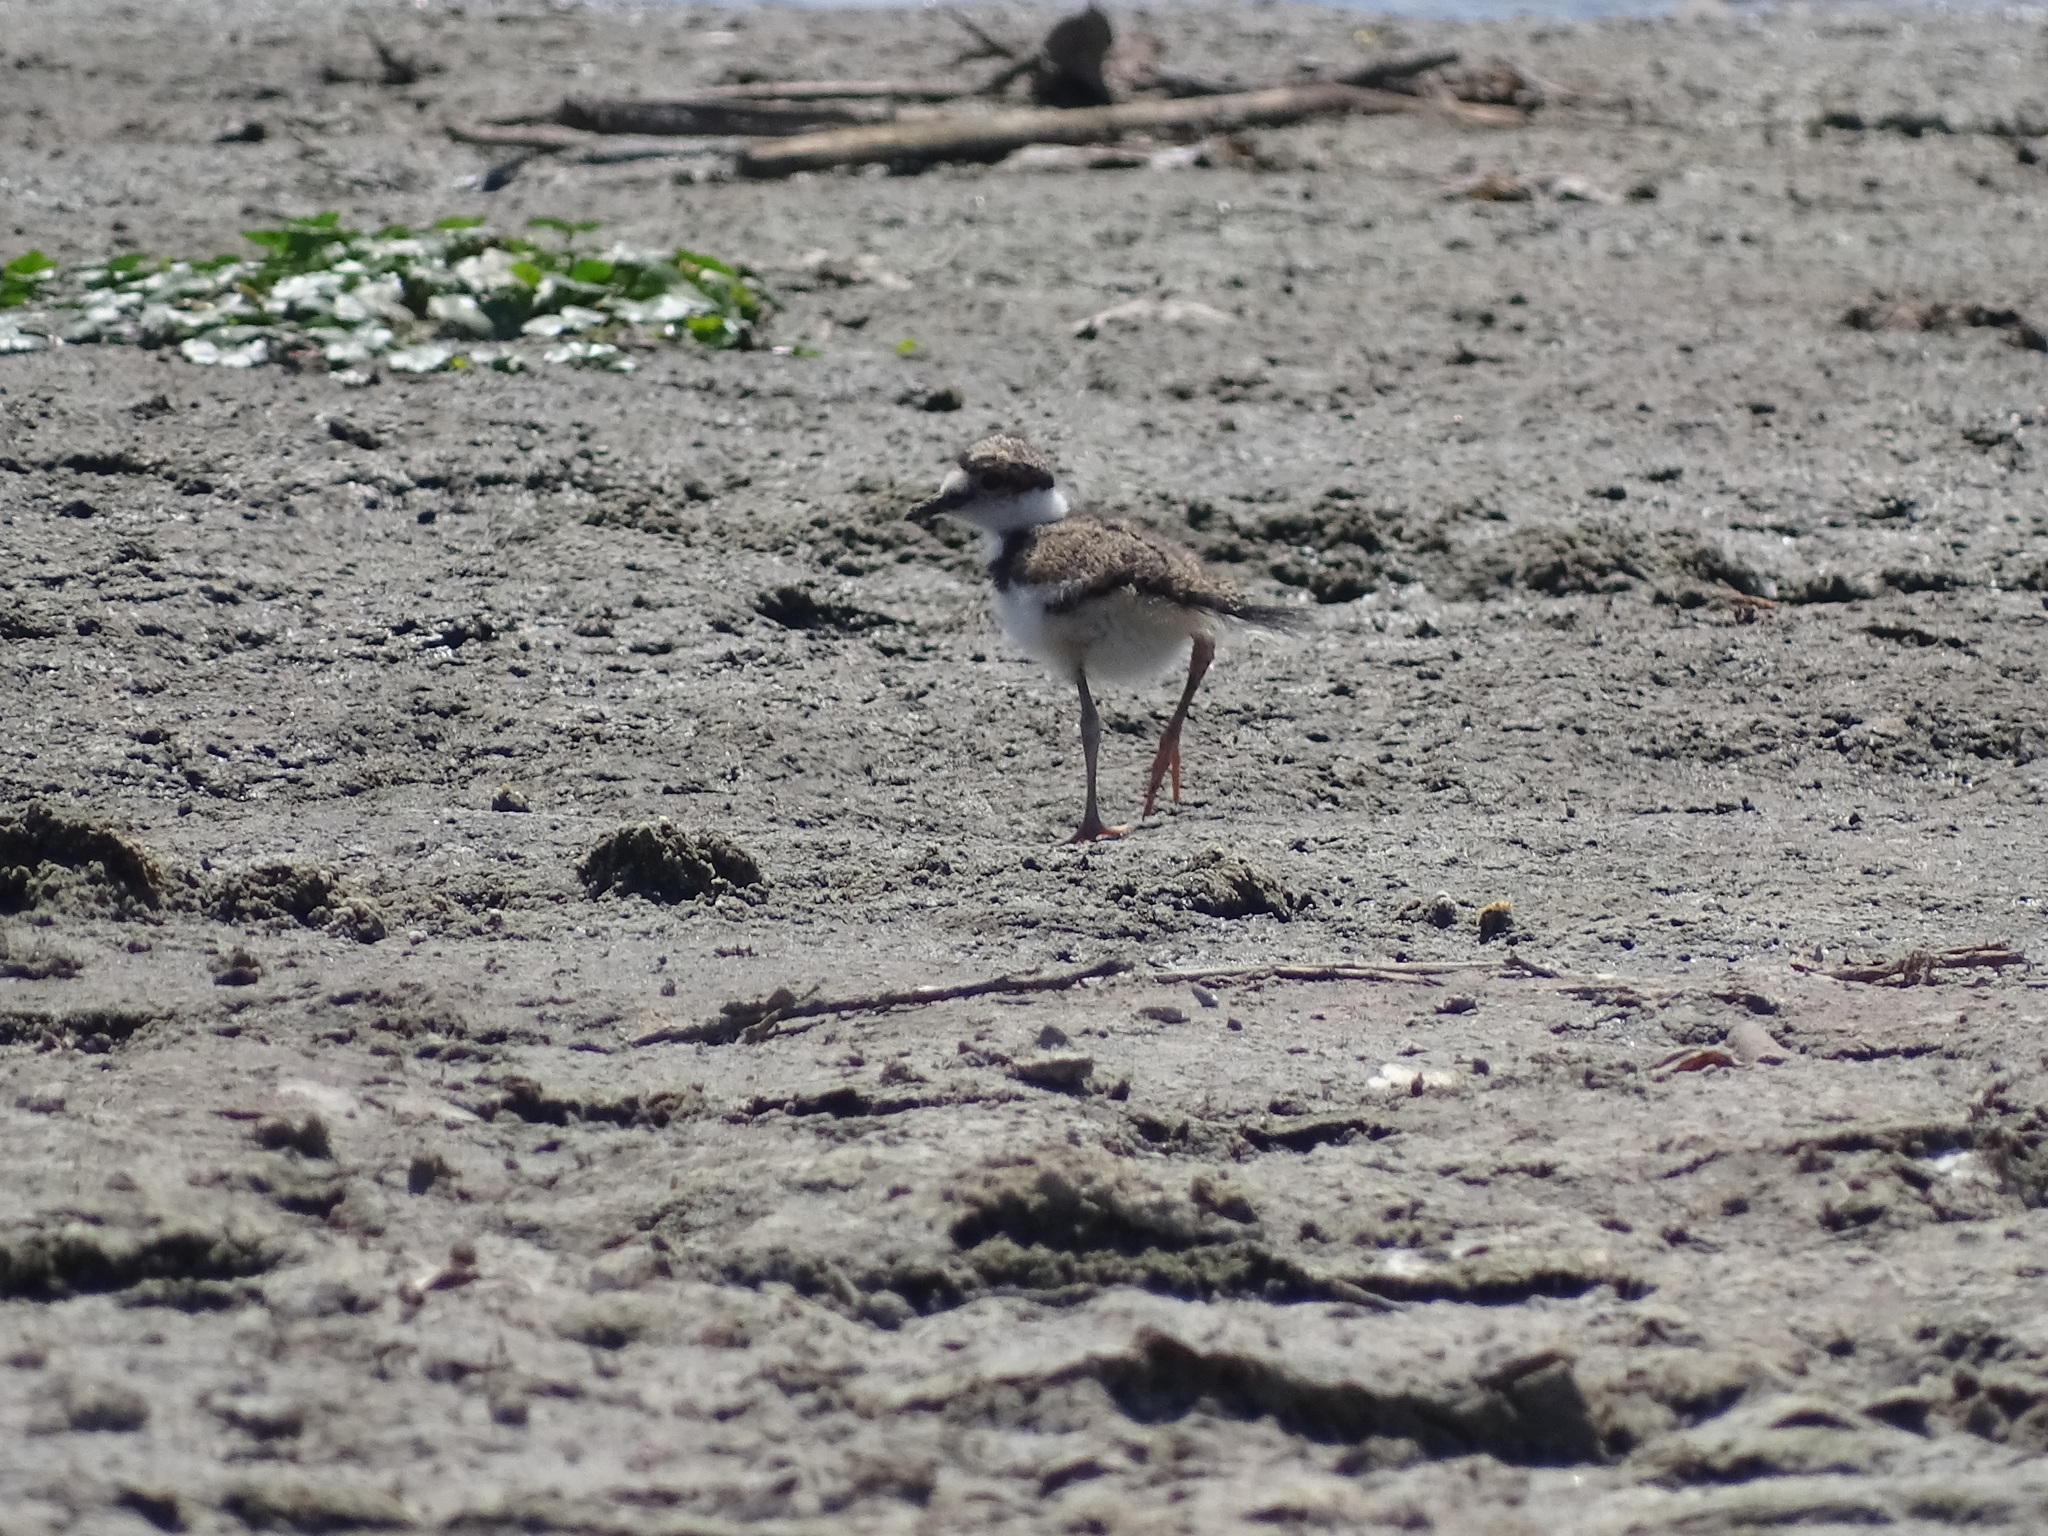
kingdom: Animalia
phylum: Chordata
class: Aves
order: Charadriiformes
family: Charadriidae
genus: Charadrius
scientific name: Charadrius vociferus
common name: Killdeer
